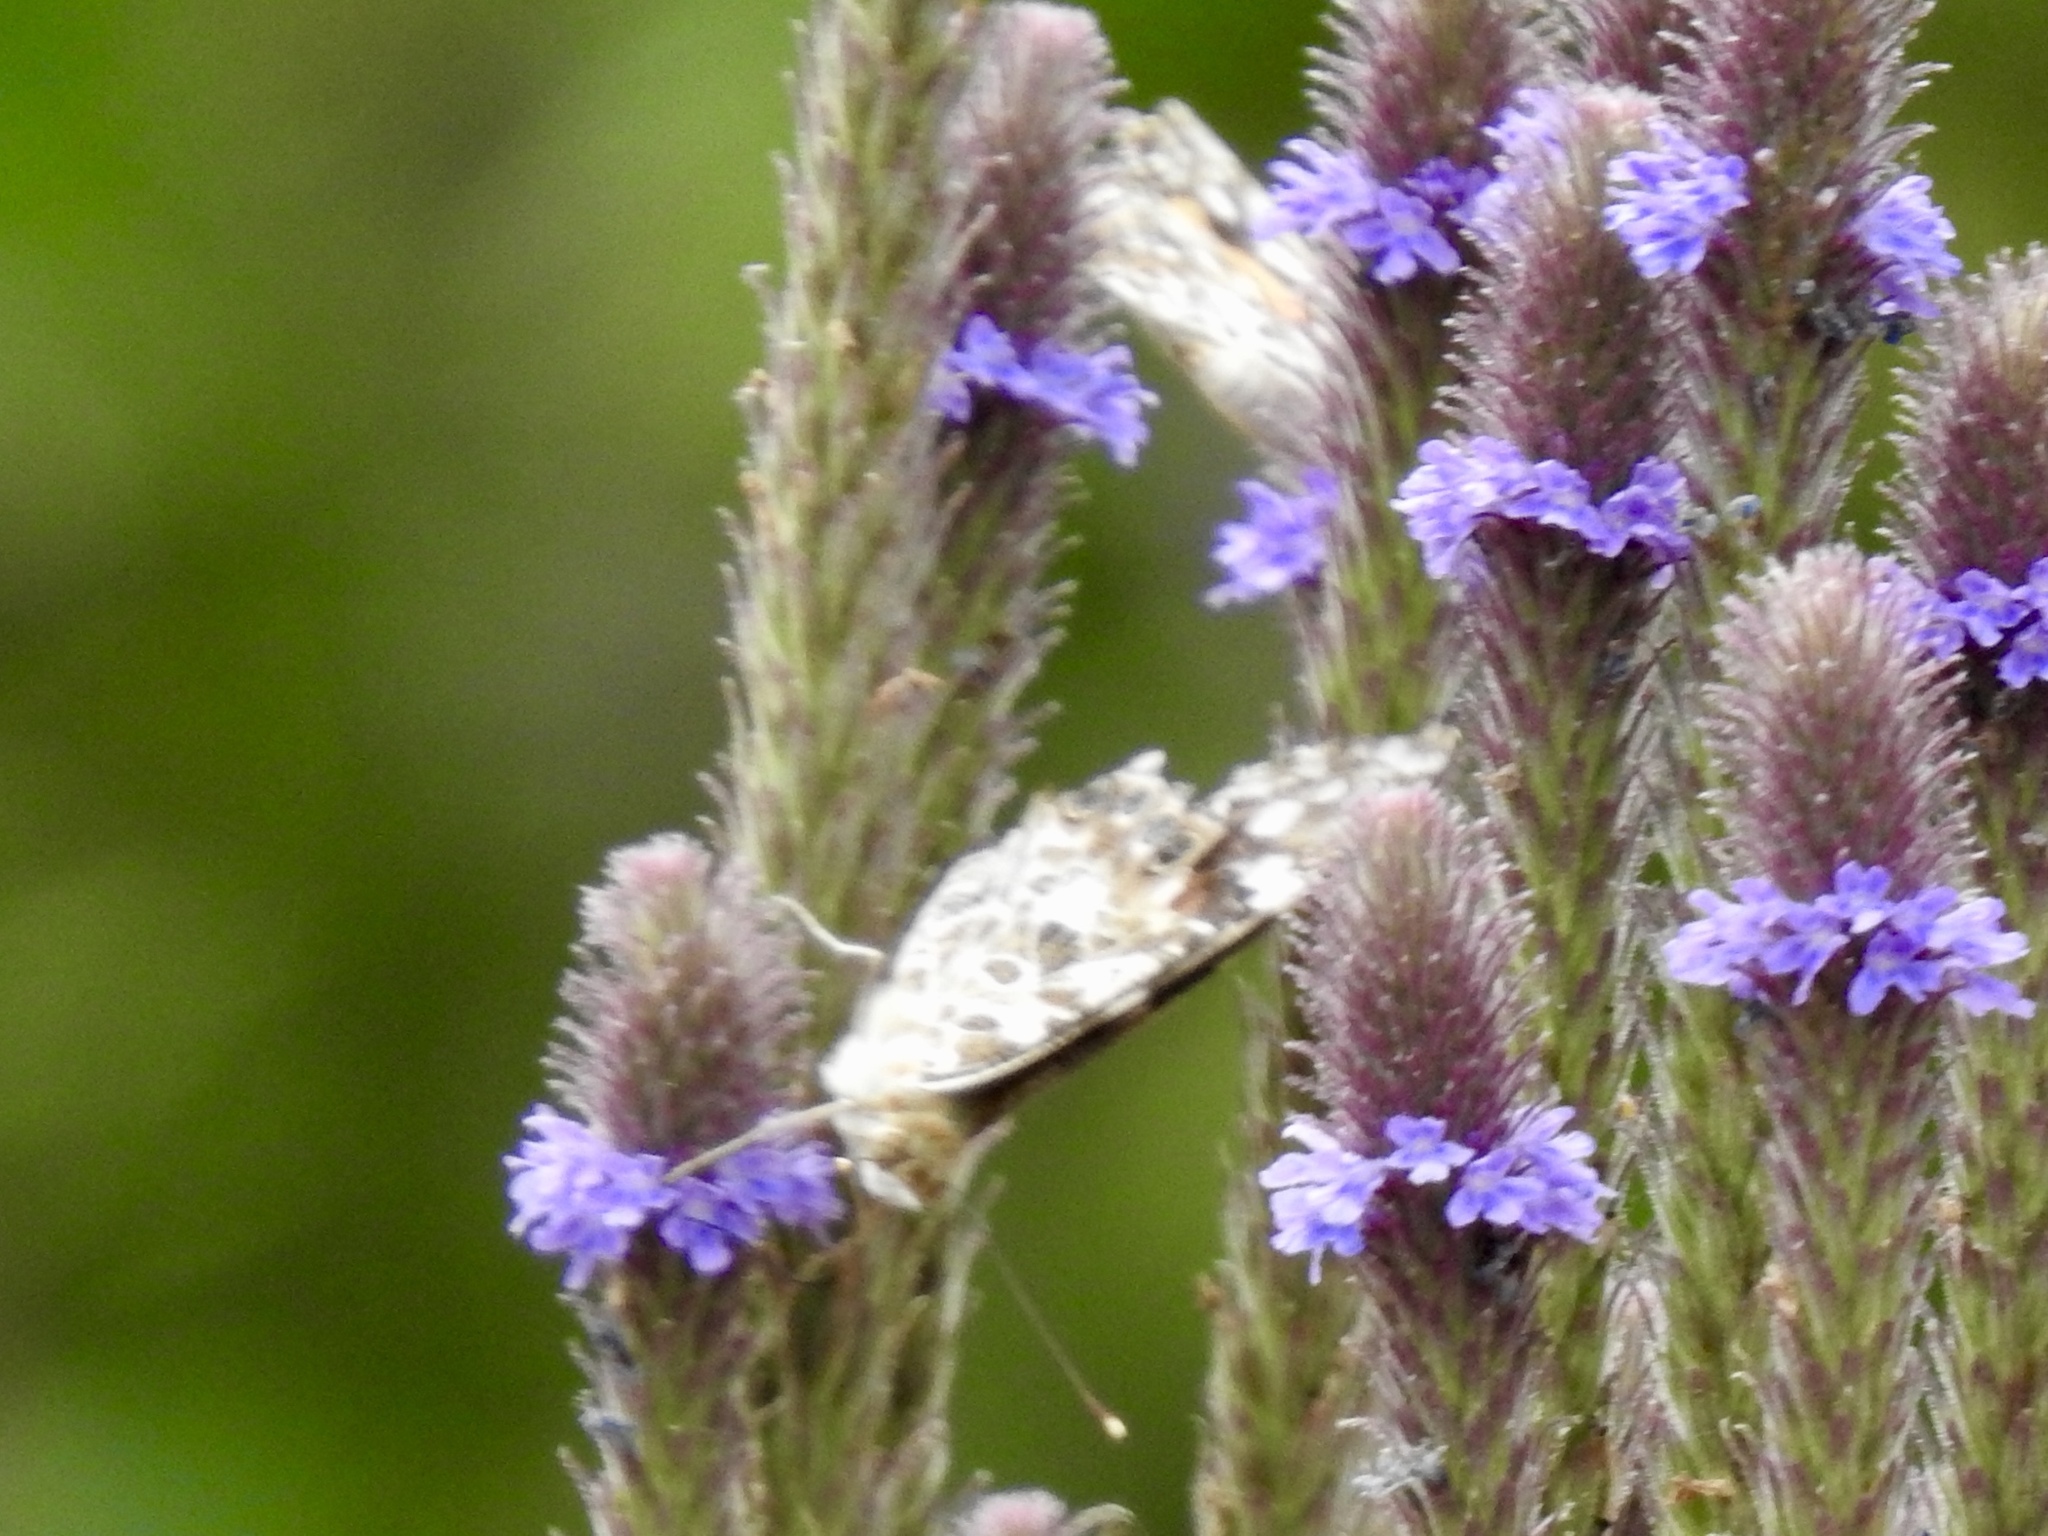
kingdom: Animalia
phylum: Arthropoda
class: Insecta
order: Lepidoptera
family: Nymphalidae
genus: Vanessa
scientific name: Vanessa cardui
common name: Painted lady
